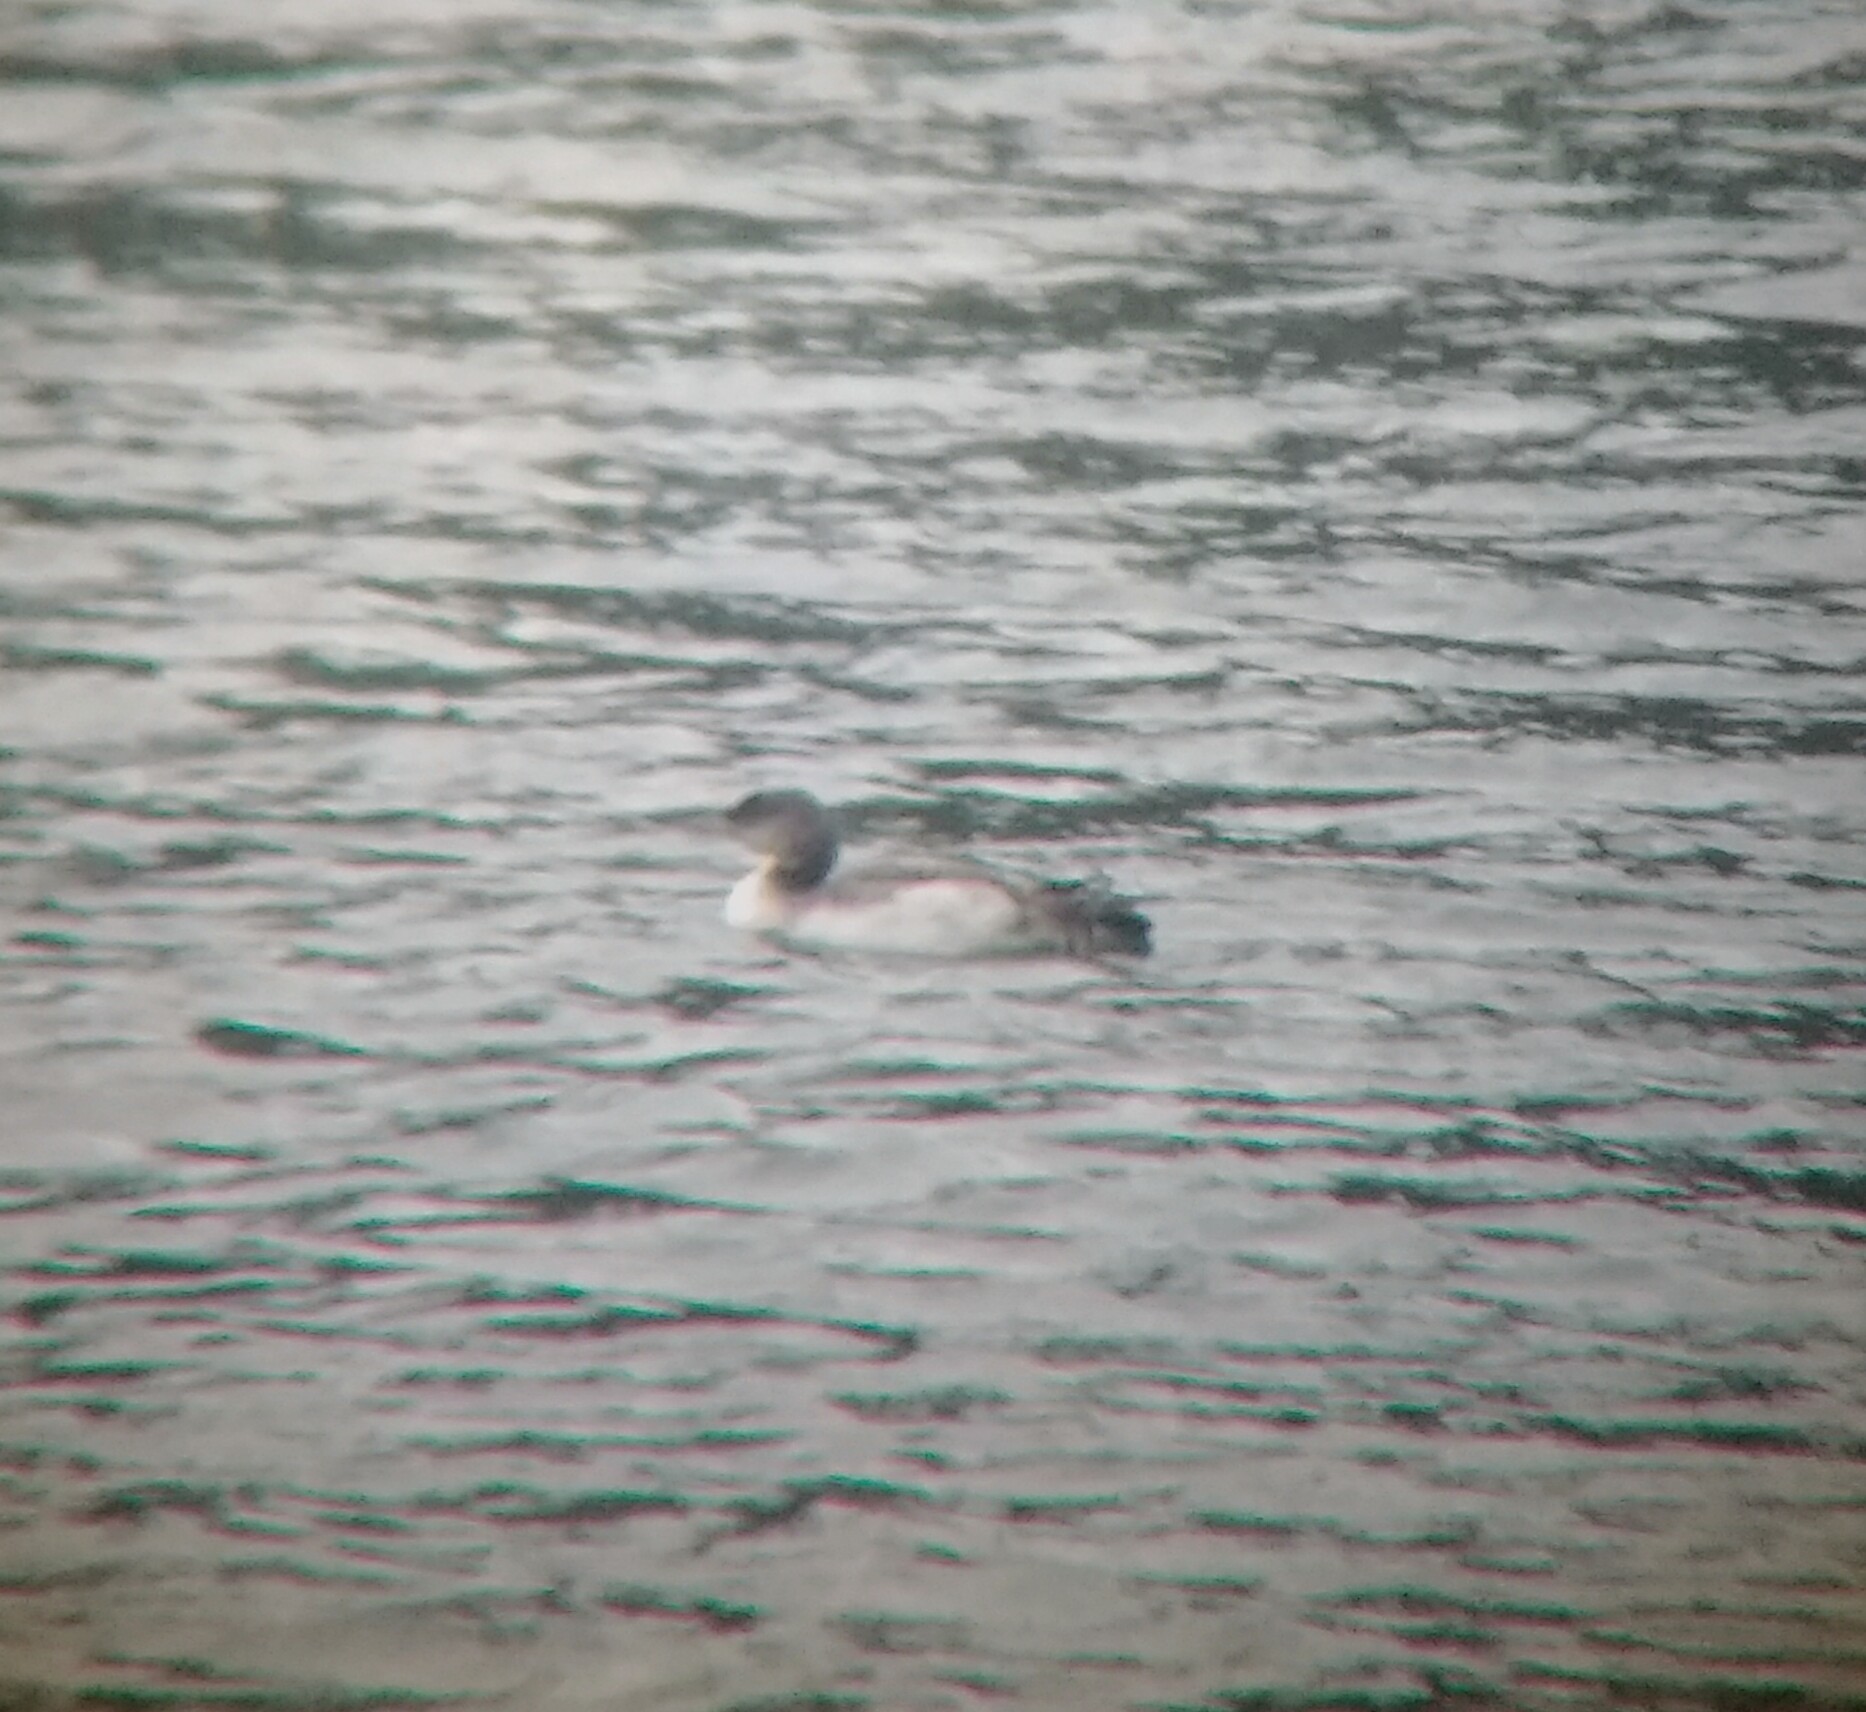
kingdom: Animalia
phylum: Chordata
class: Aves
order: Gaviiformes
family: Gaviidae
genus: Gavia
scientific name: Gavia immer
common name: Common loon
